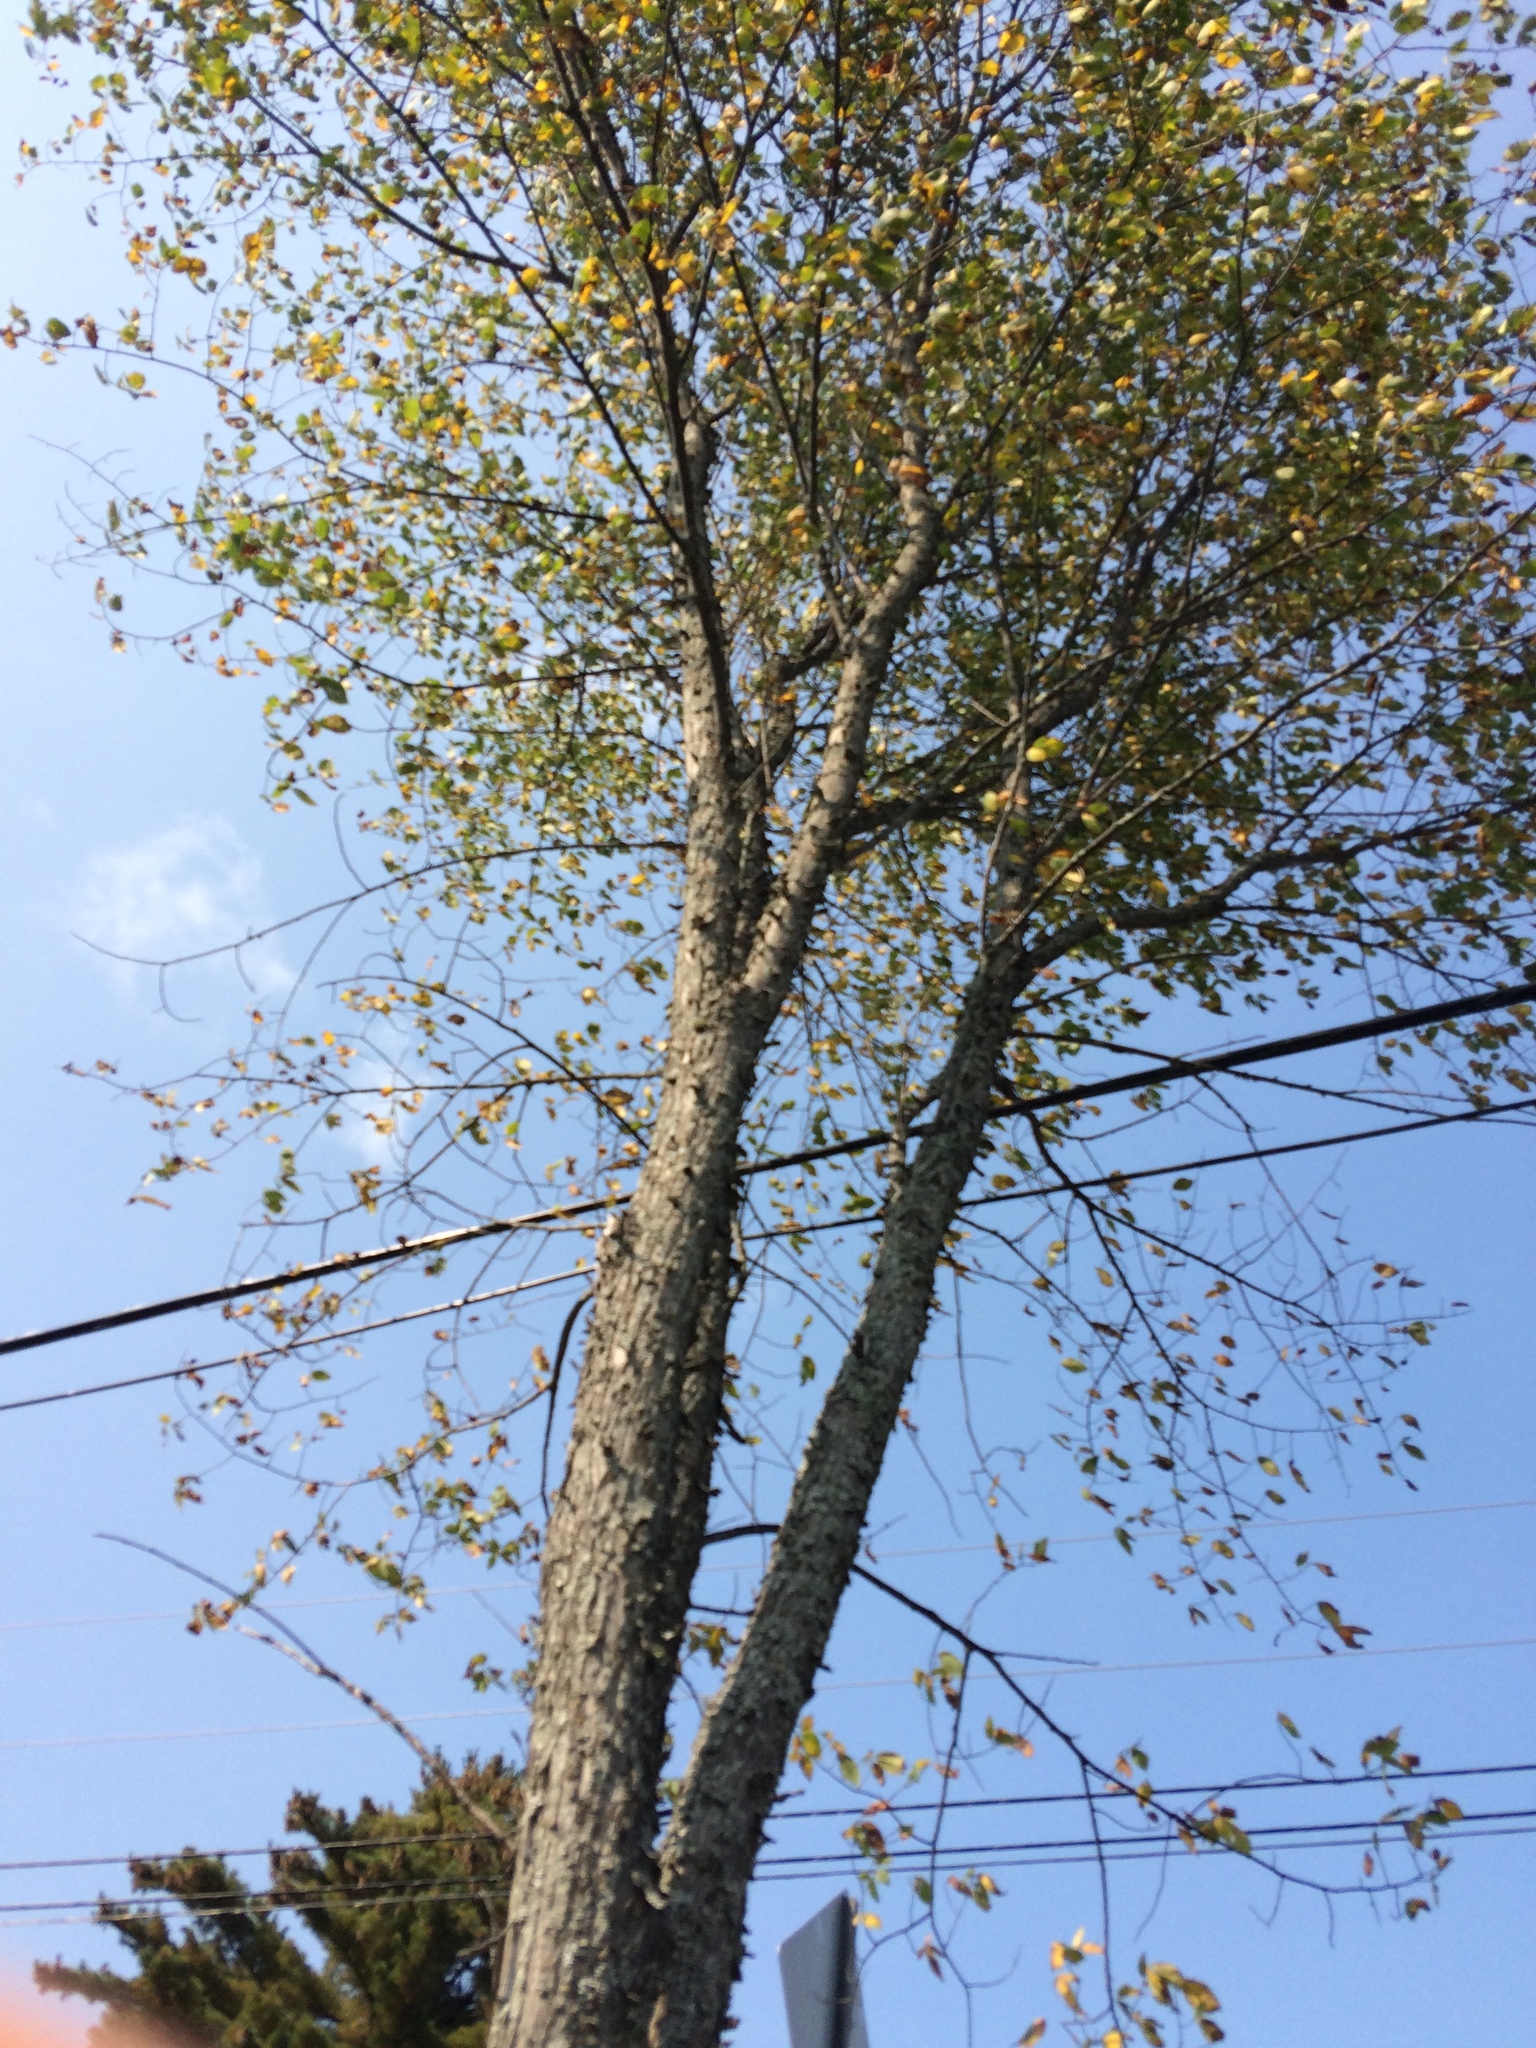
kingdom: Plantae
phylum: Tracheophyta
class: Magnoliopsida
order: Rosales
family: Ulmaceae
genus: Ulmus
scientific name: Ulmus americana
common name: American elm
